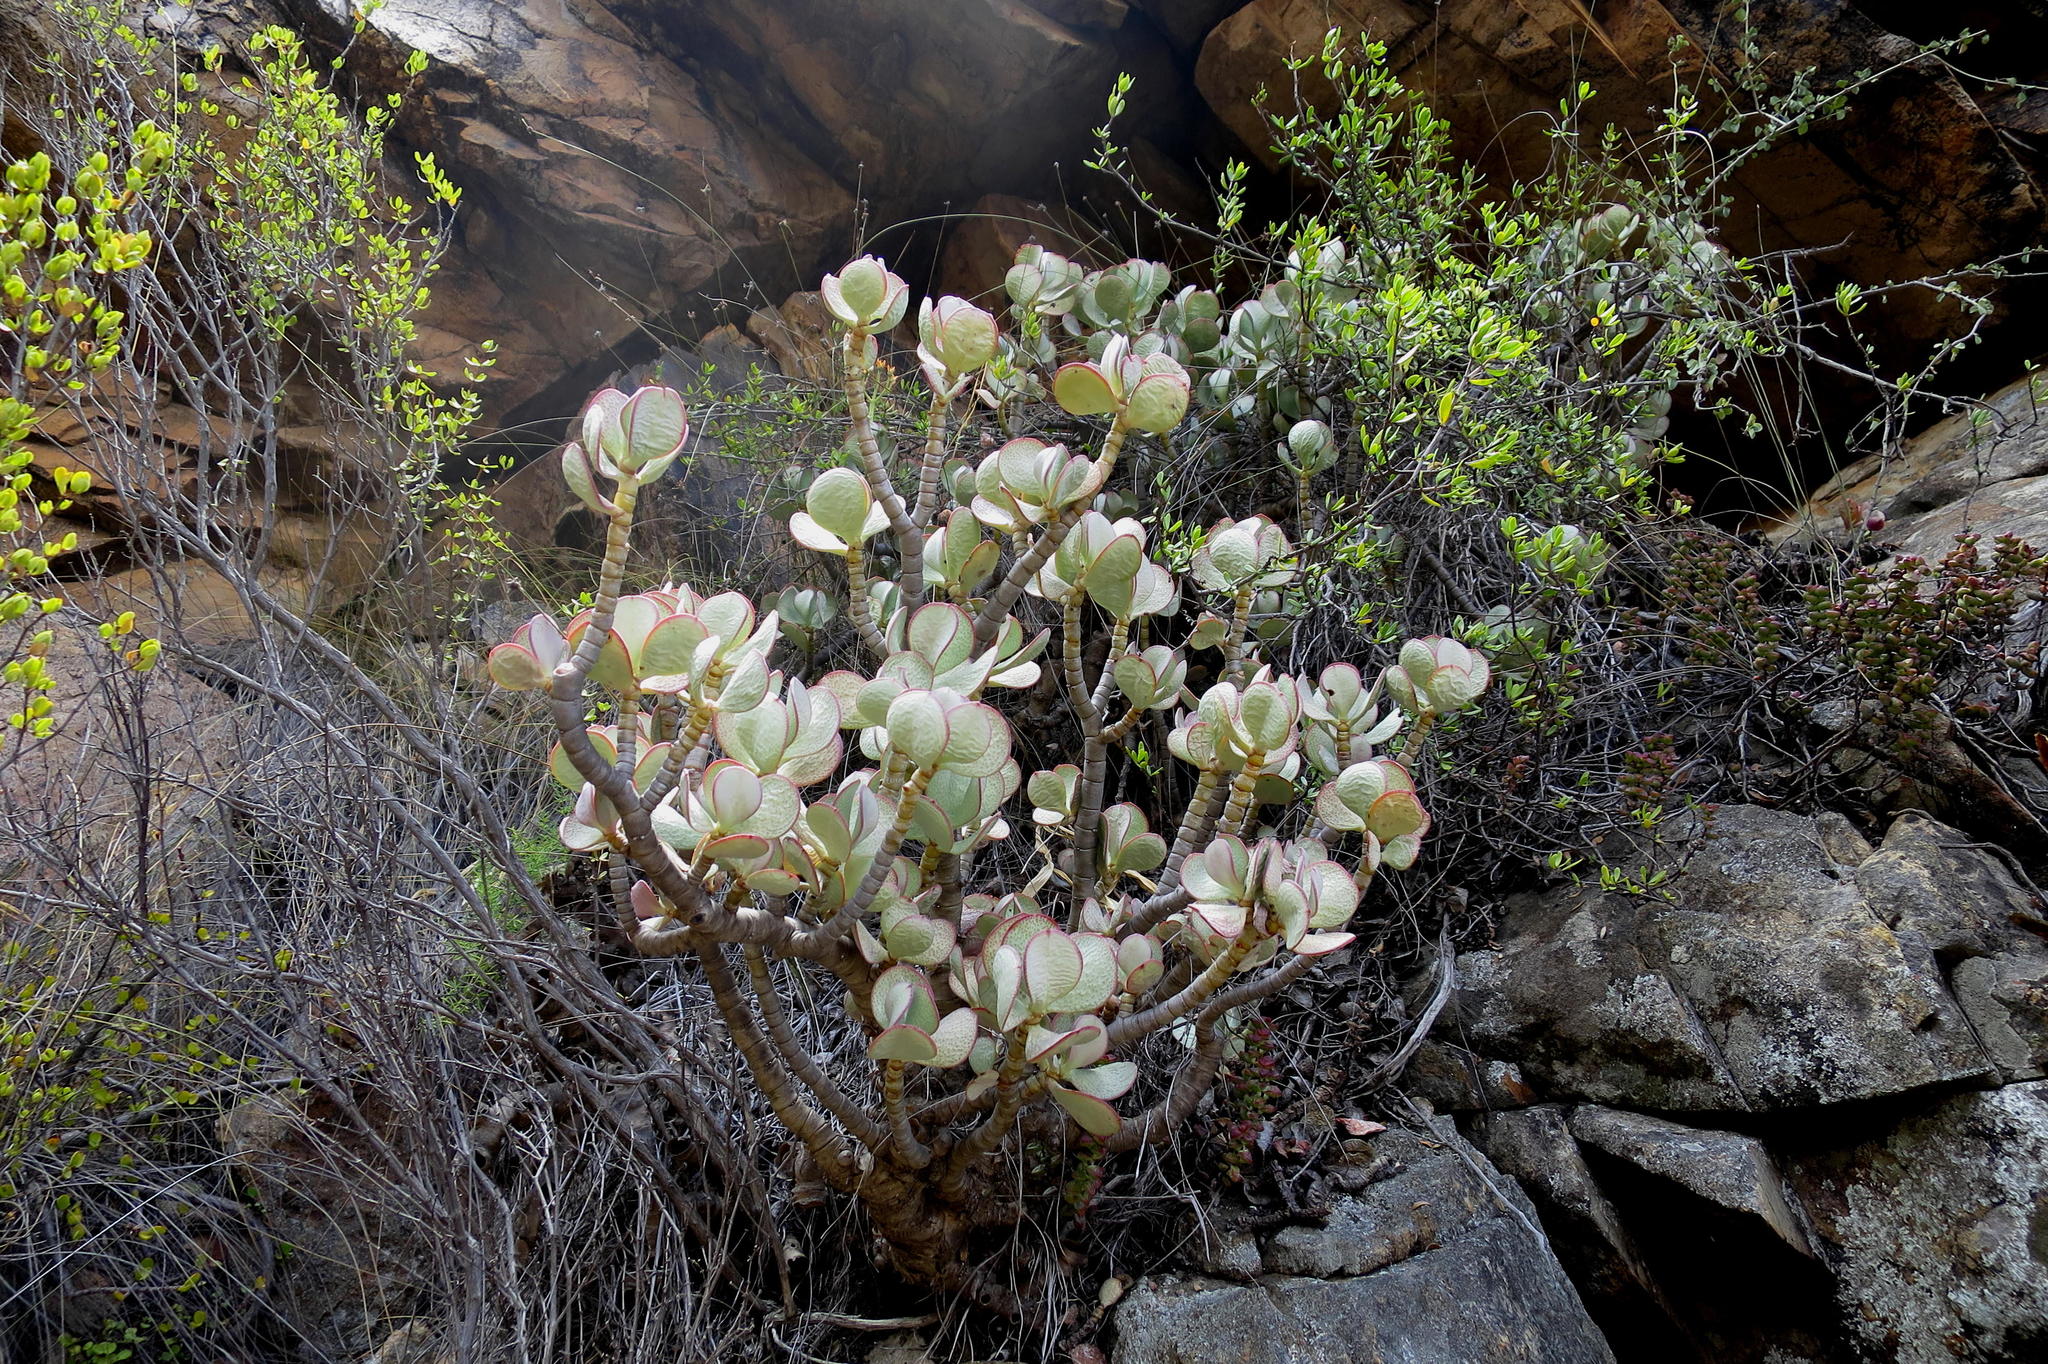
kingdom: Plantae
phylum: Tracheophyta
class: Magnoliopsida
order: Saxifragales
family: Crassulaceae
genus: Crassula
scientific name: Crassula arborescens
